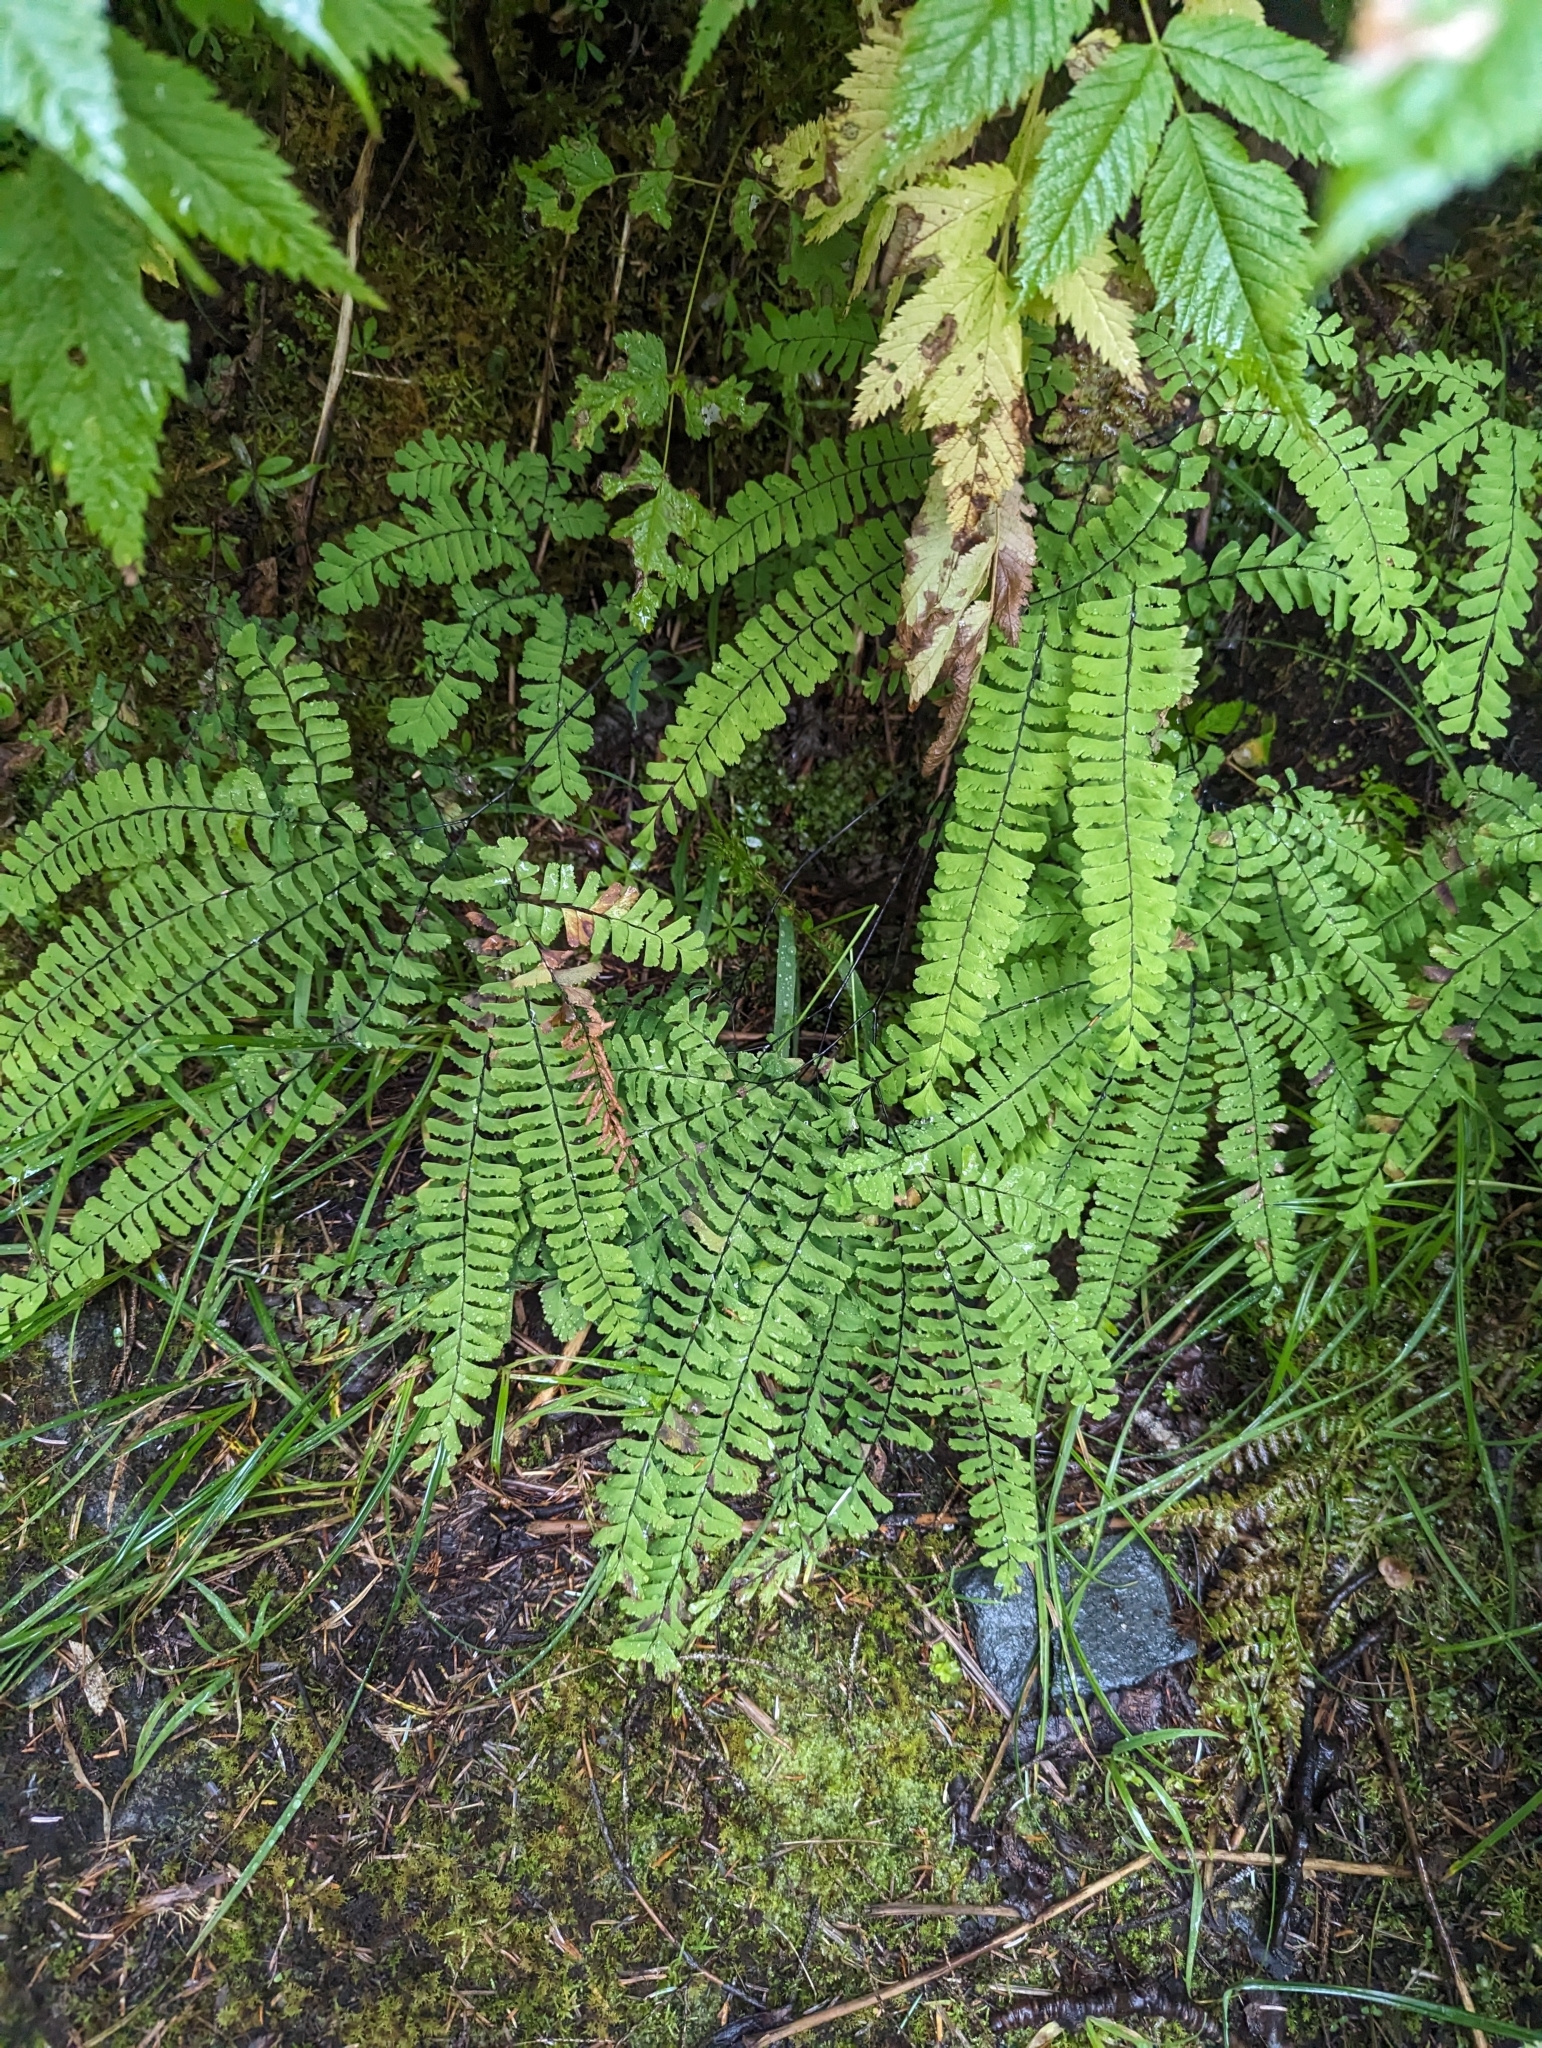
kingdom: Plantae
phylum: Tracheophyta
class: Polypodiopsida
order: Polypodiales
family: Pteridaceae
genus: Adiantum
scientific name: Adiantum aleuticum
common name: Aleutian maidenhair fern
